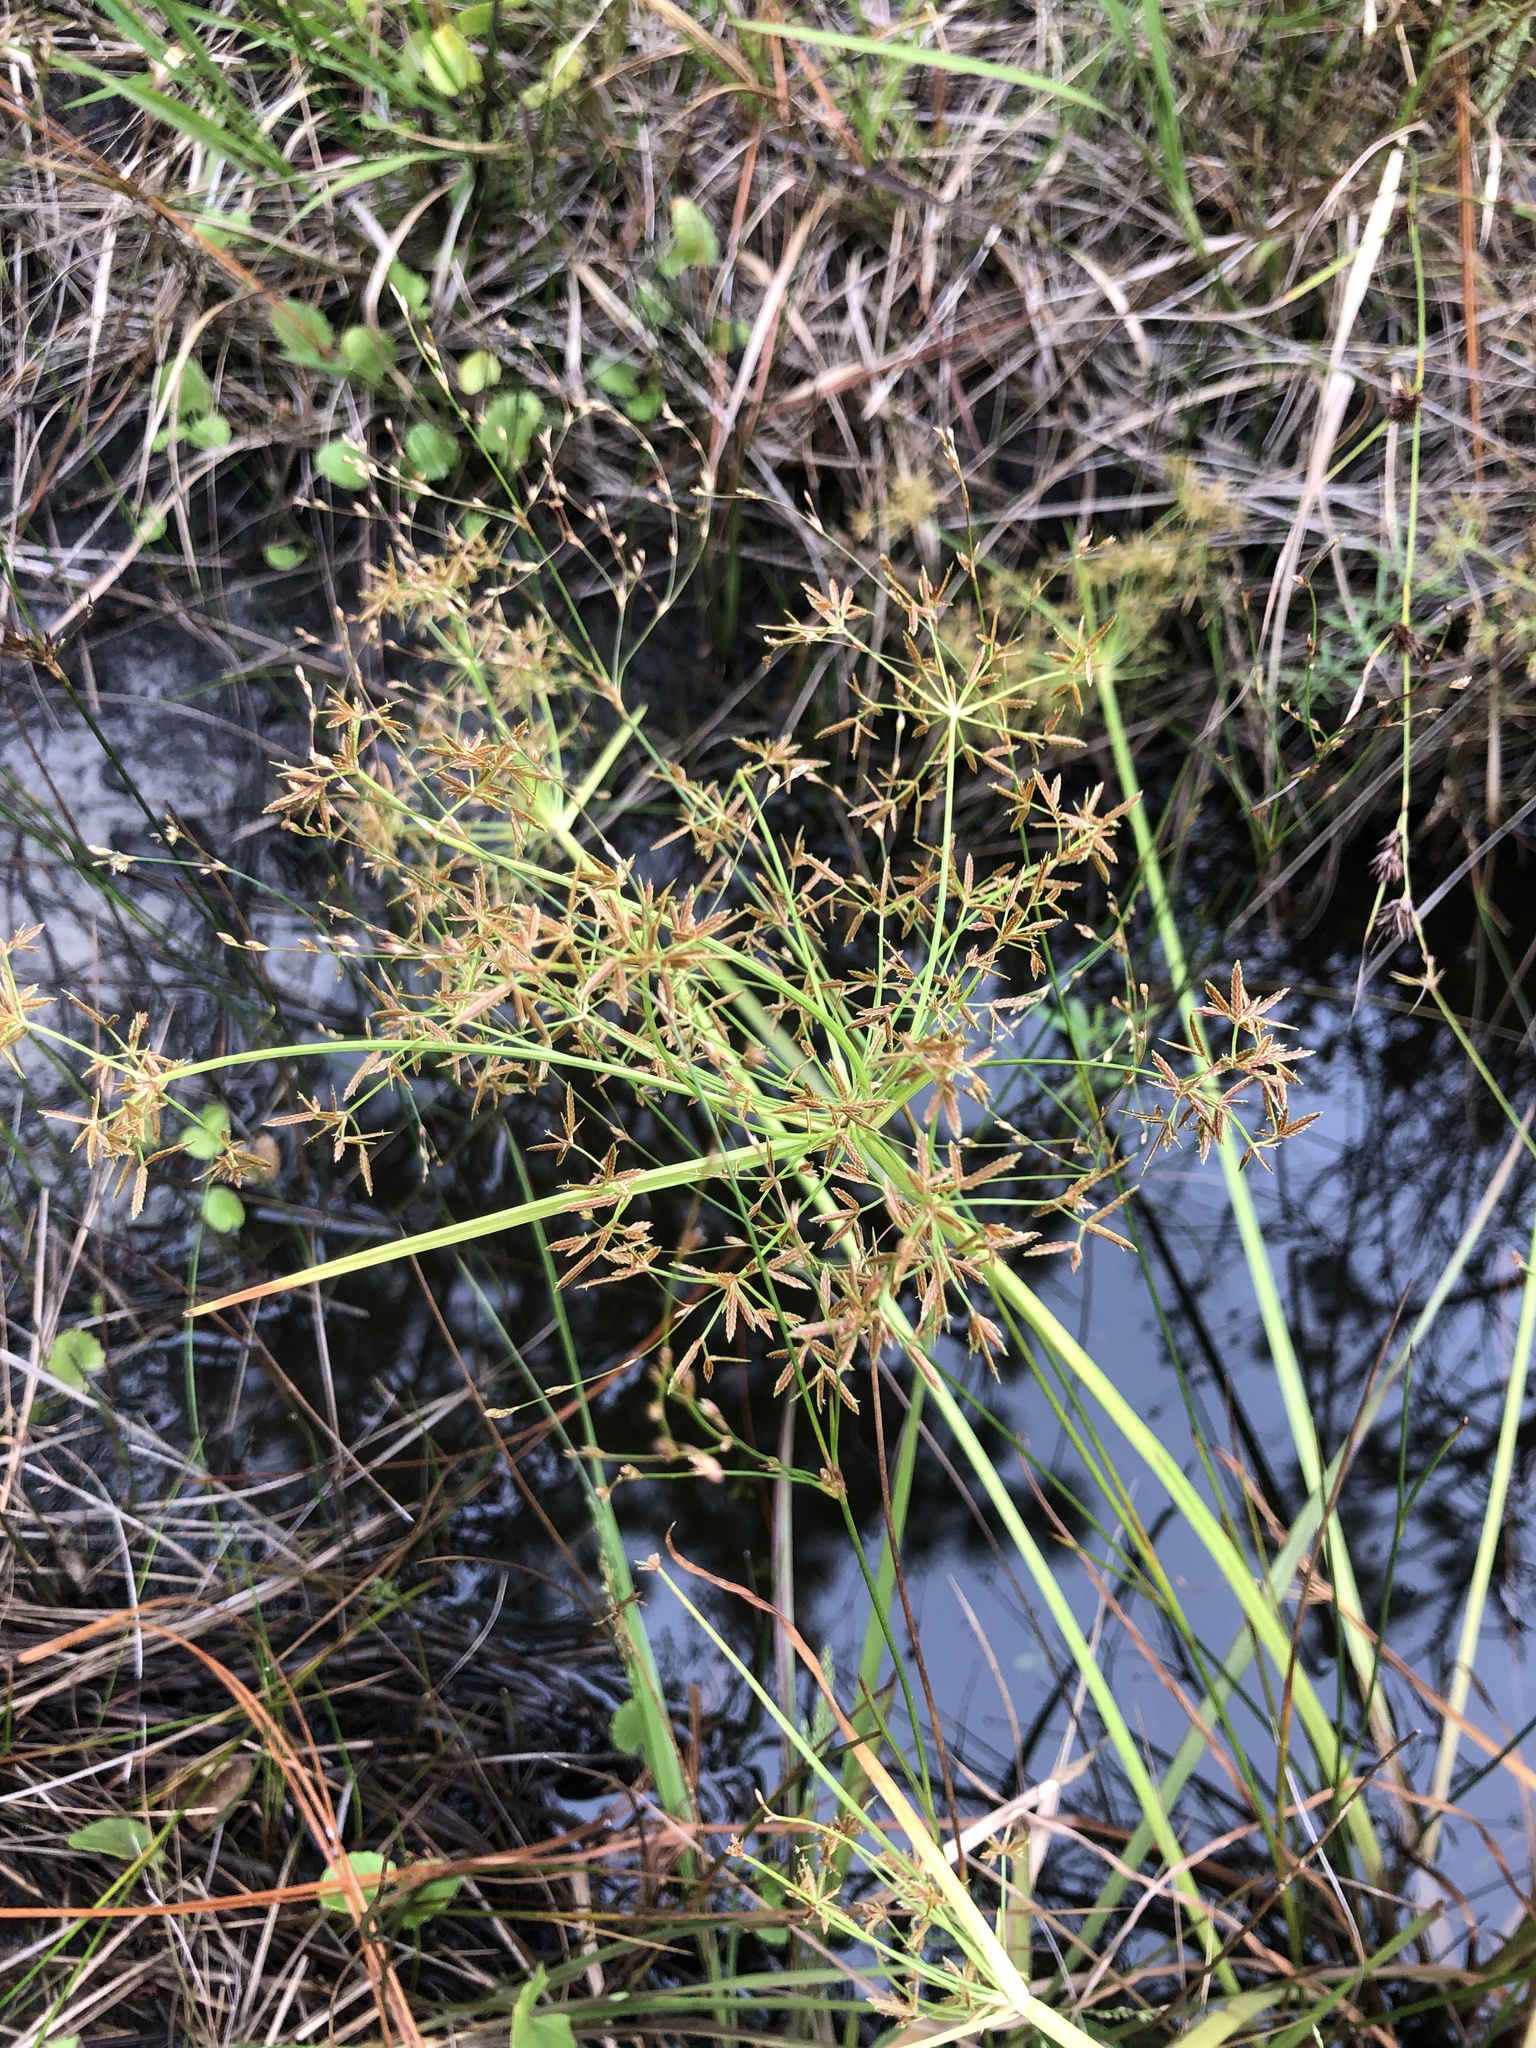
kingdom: Plantae
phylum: Tracheophyta
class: Liliopsida
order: Poales
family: Cyperaceae
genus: Cyperus
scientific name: Cyperus haspan
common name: Haspan flatsedge
